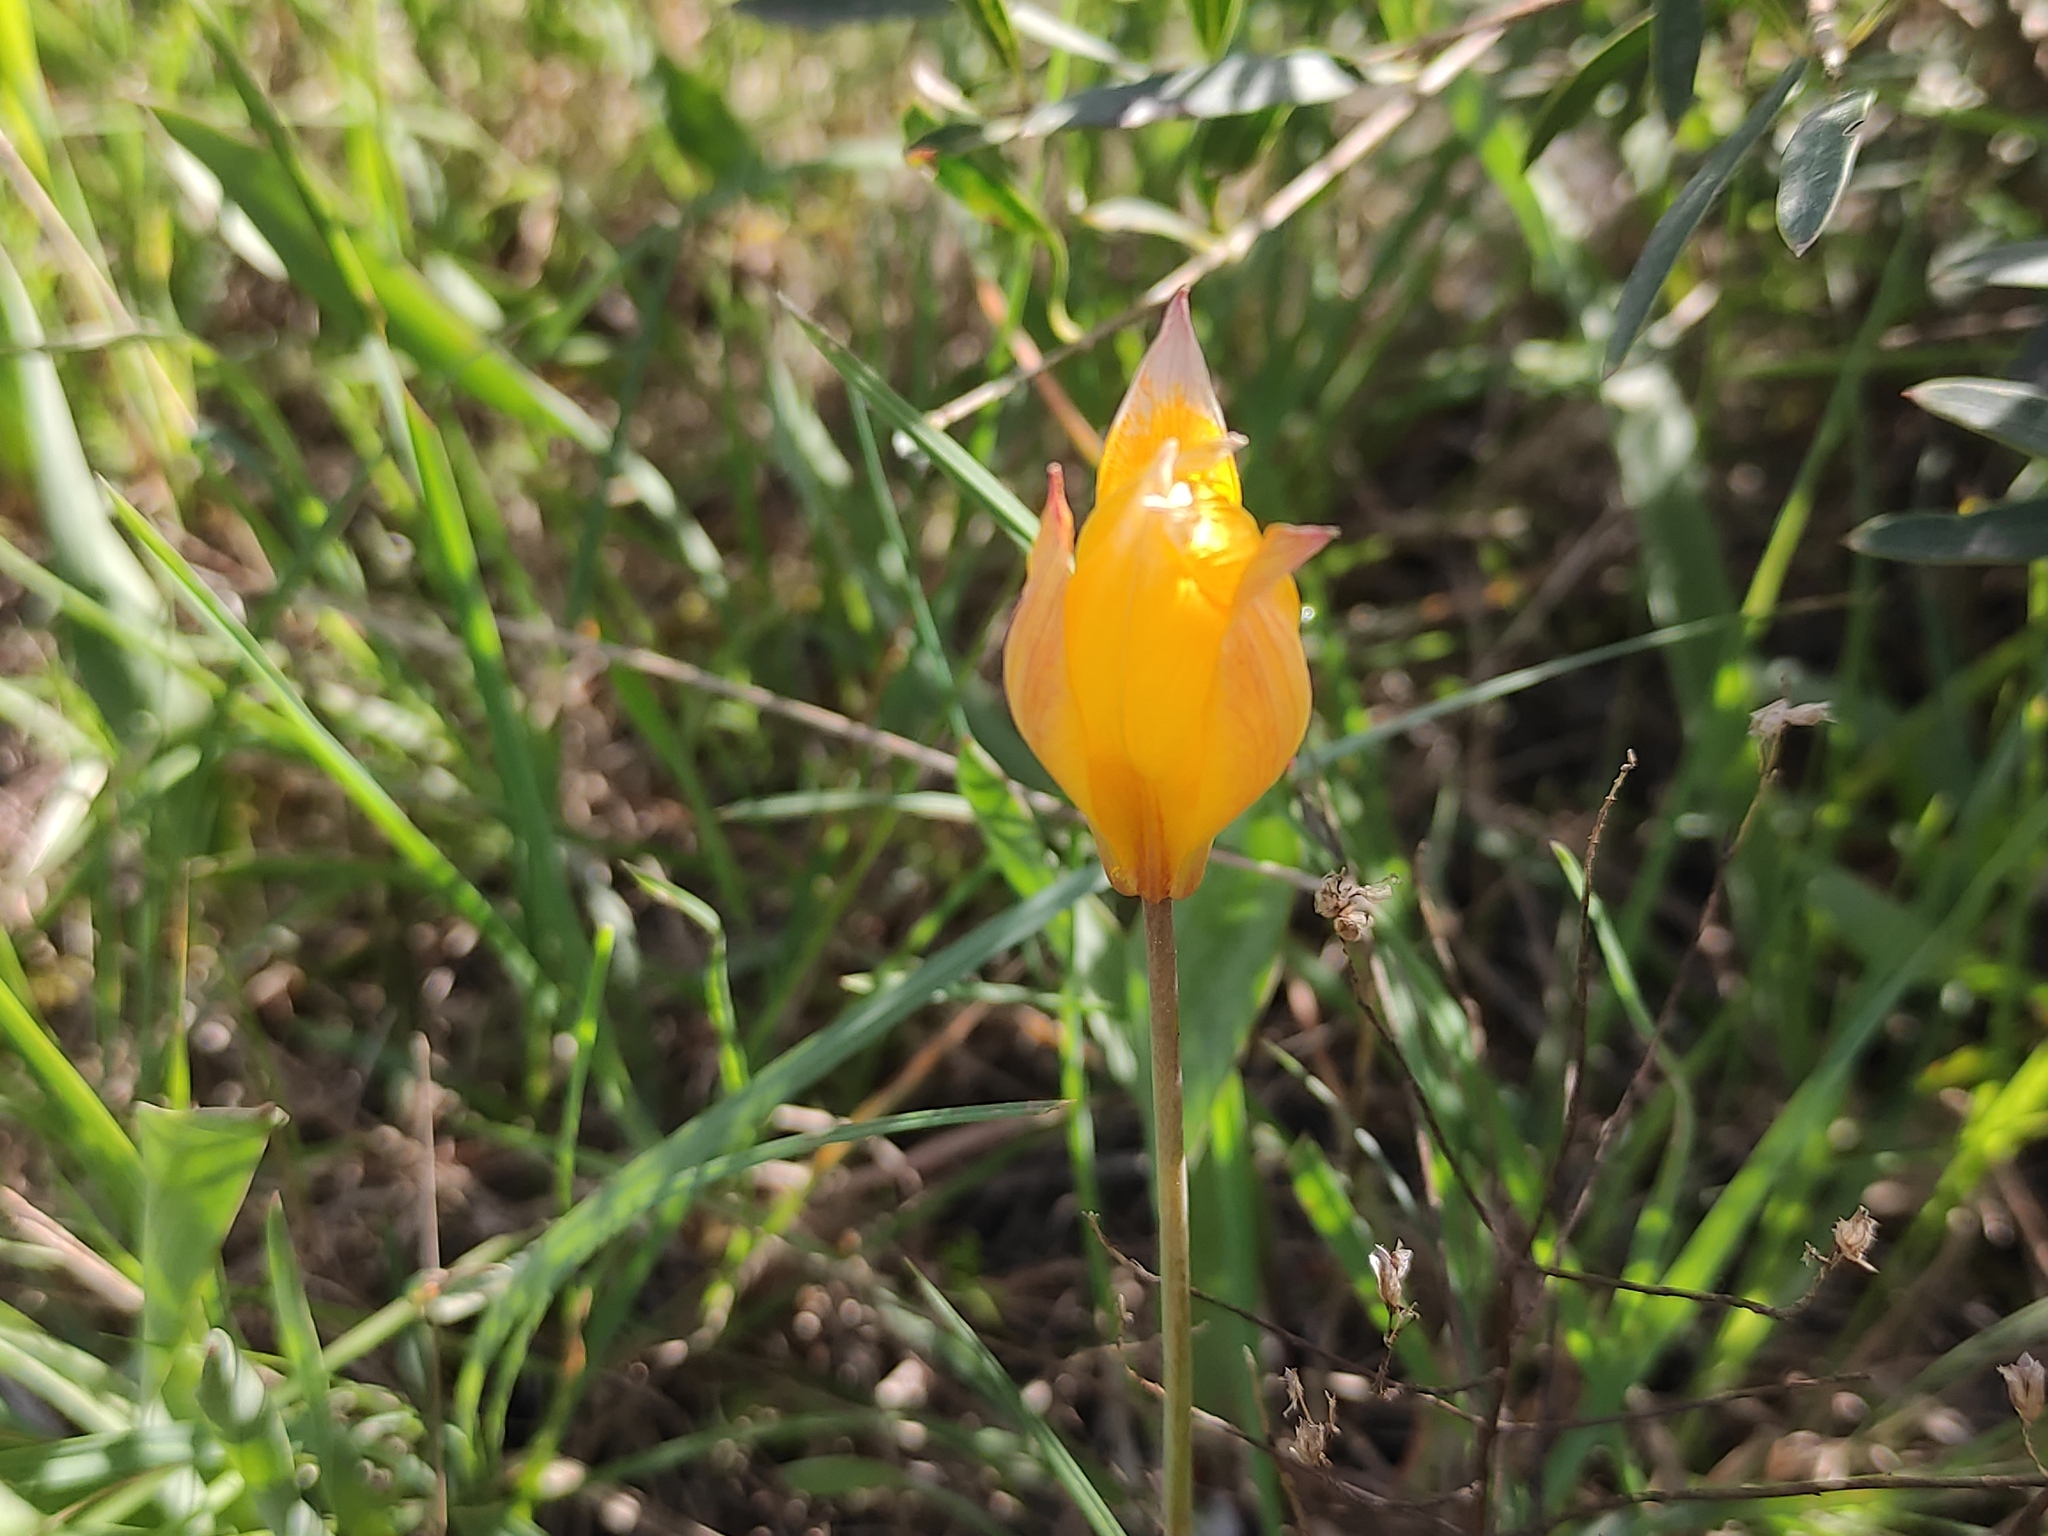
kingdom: Plantae
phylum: Tracheophyta
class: Liliopsida
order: Liliales
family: Liliaceae
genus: Tulipa
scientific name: Tulipa sylvestris
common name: Wild tulip
